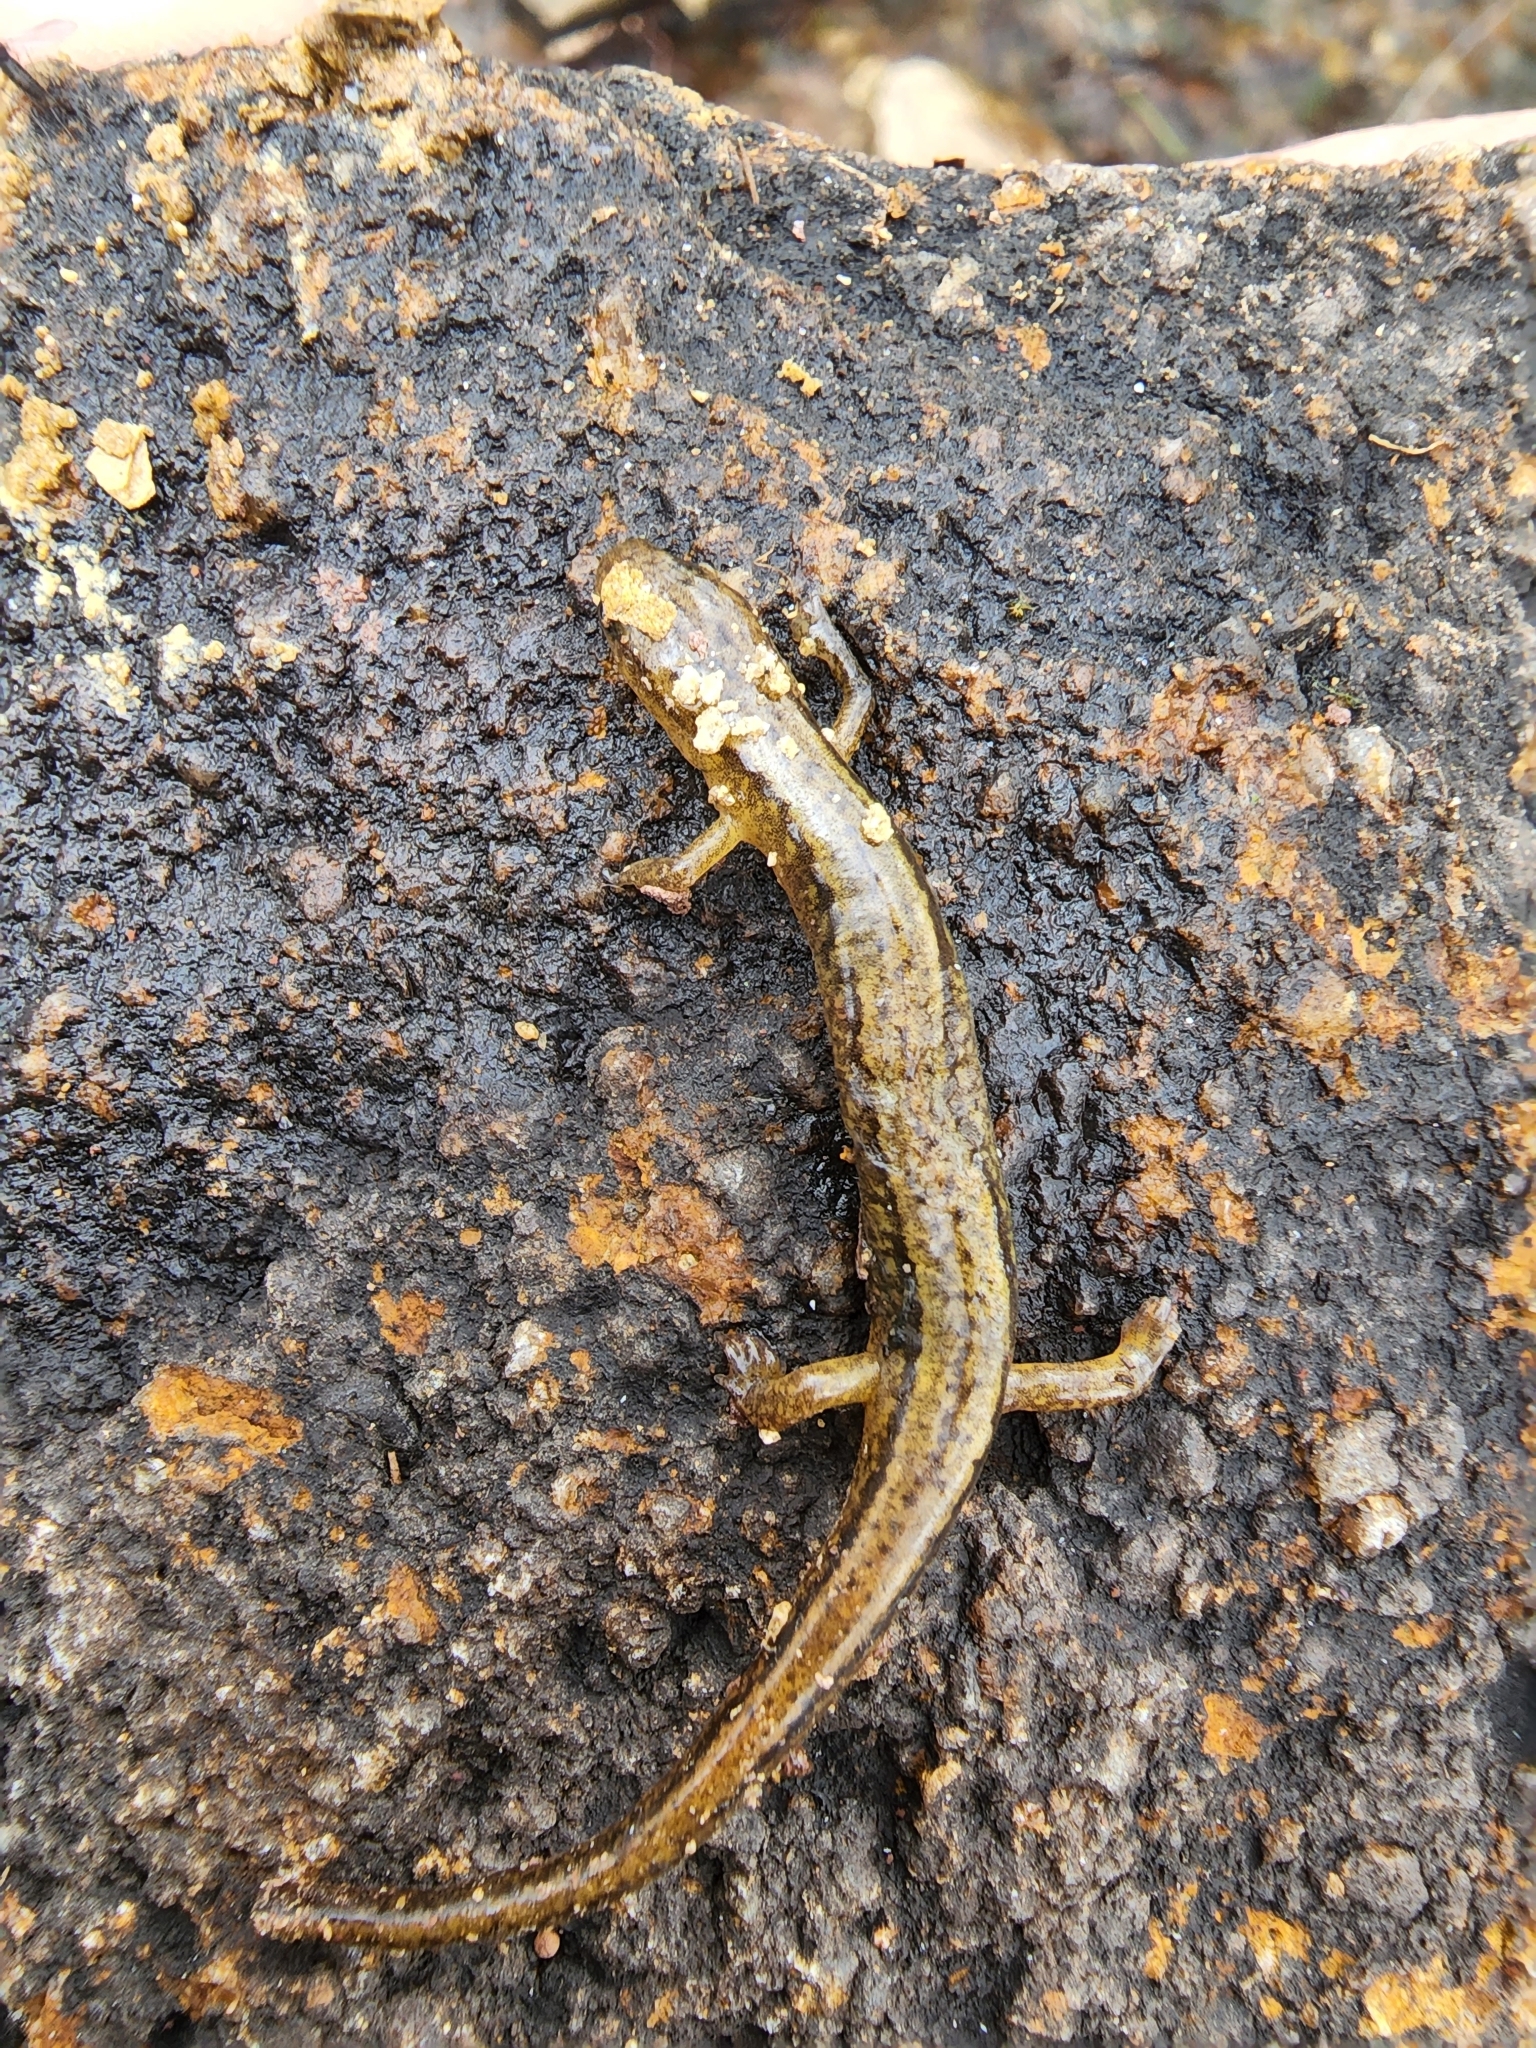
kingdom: Animalia
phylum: Chordata
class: Amphibia
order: Caudata
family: Plethodontidae
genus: Eurycea
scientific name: Eurycea bislineata
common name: Northern two-lined salamander
